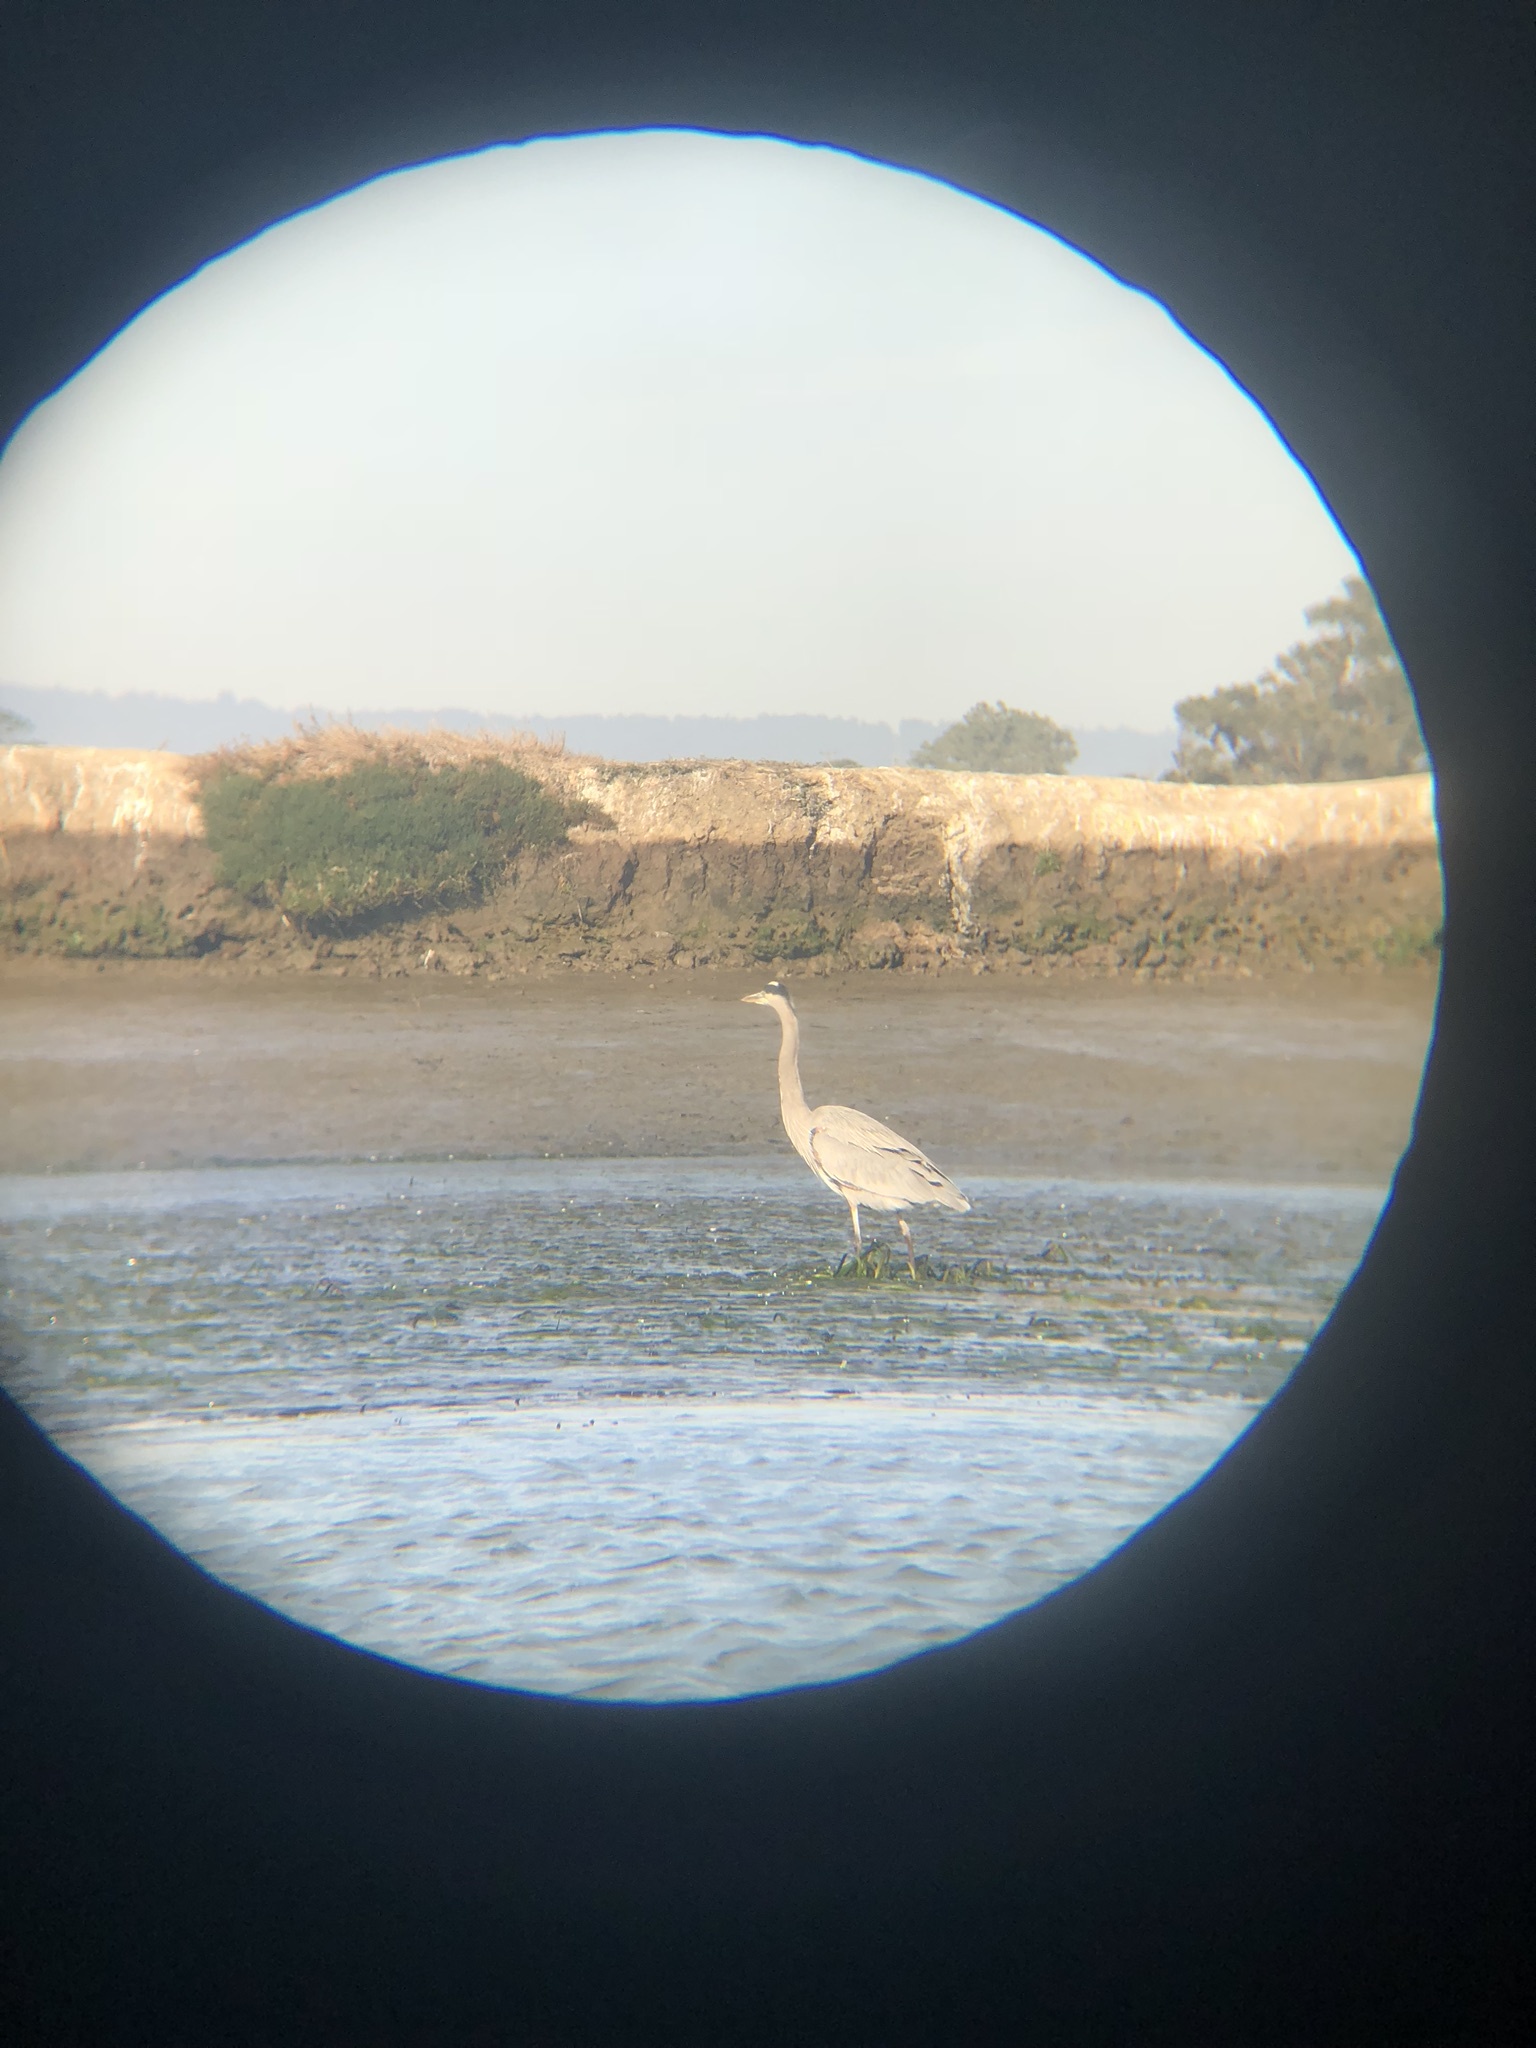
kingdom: Animalia
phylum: Chordata
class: Aves
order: Pelecaniformes
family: Ardeidae
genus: Ardea
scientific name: Ardea herodias
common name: Great blue heron
